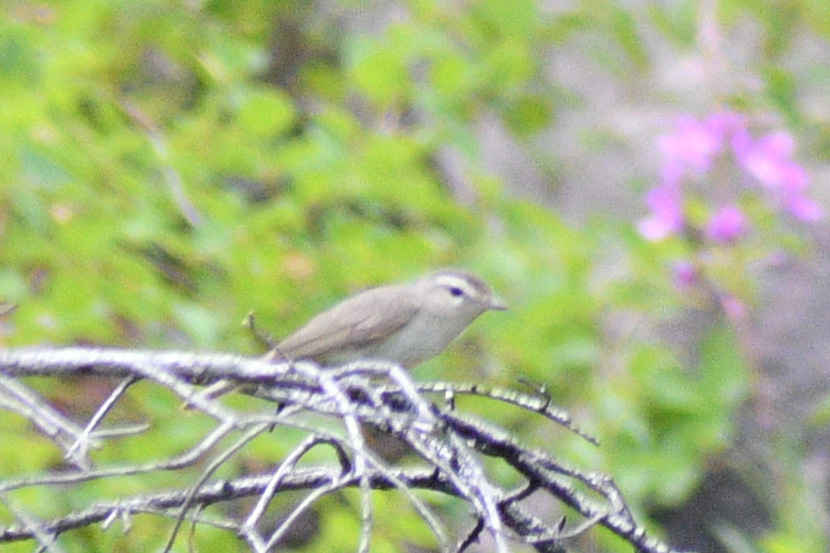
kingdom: Animalia
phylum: Chordata
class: Aves
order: Passeriformes
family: Vireonidae
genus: Vireo
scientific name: Vireo gilvus
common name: Warbling vireo
